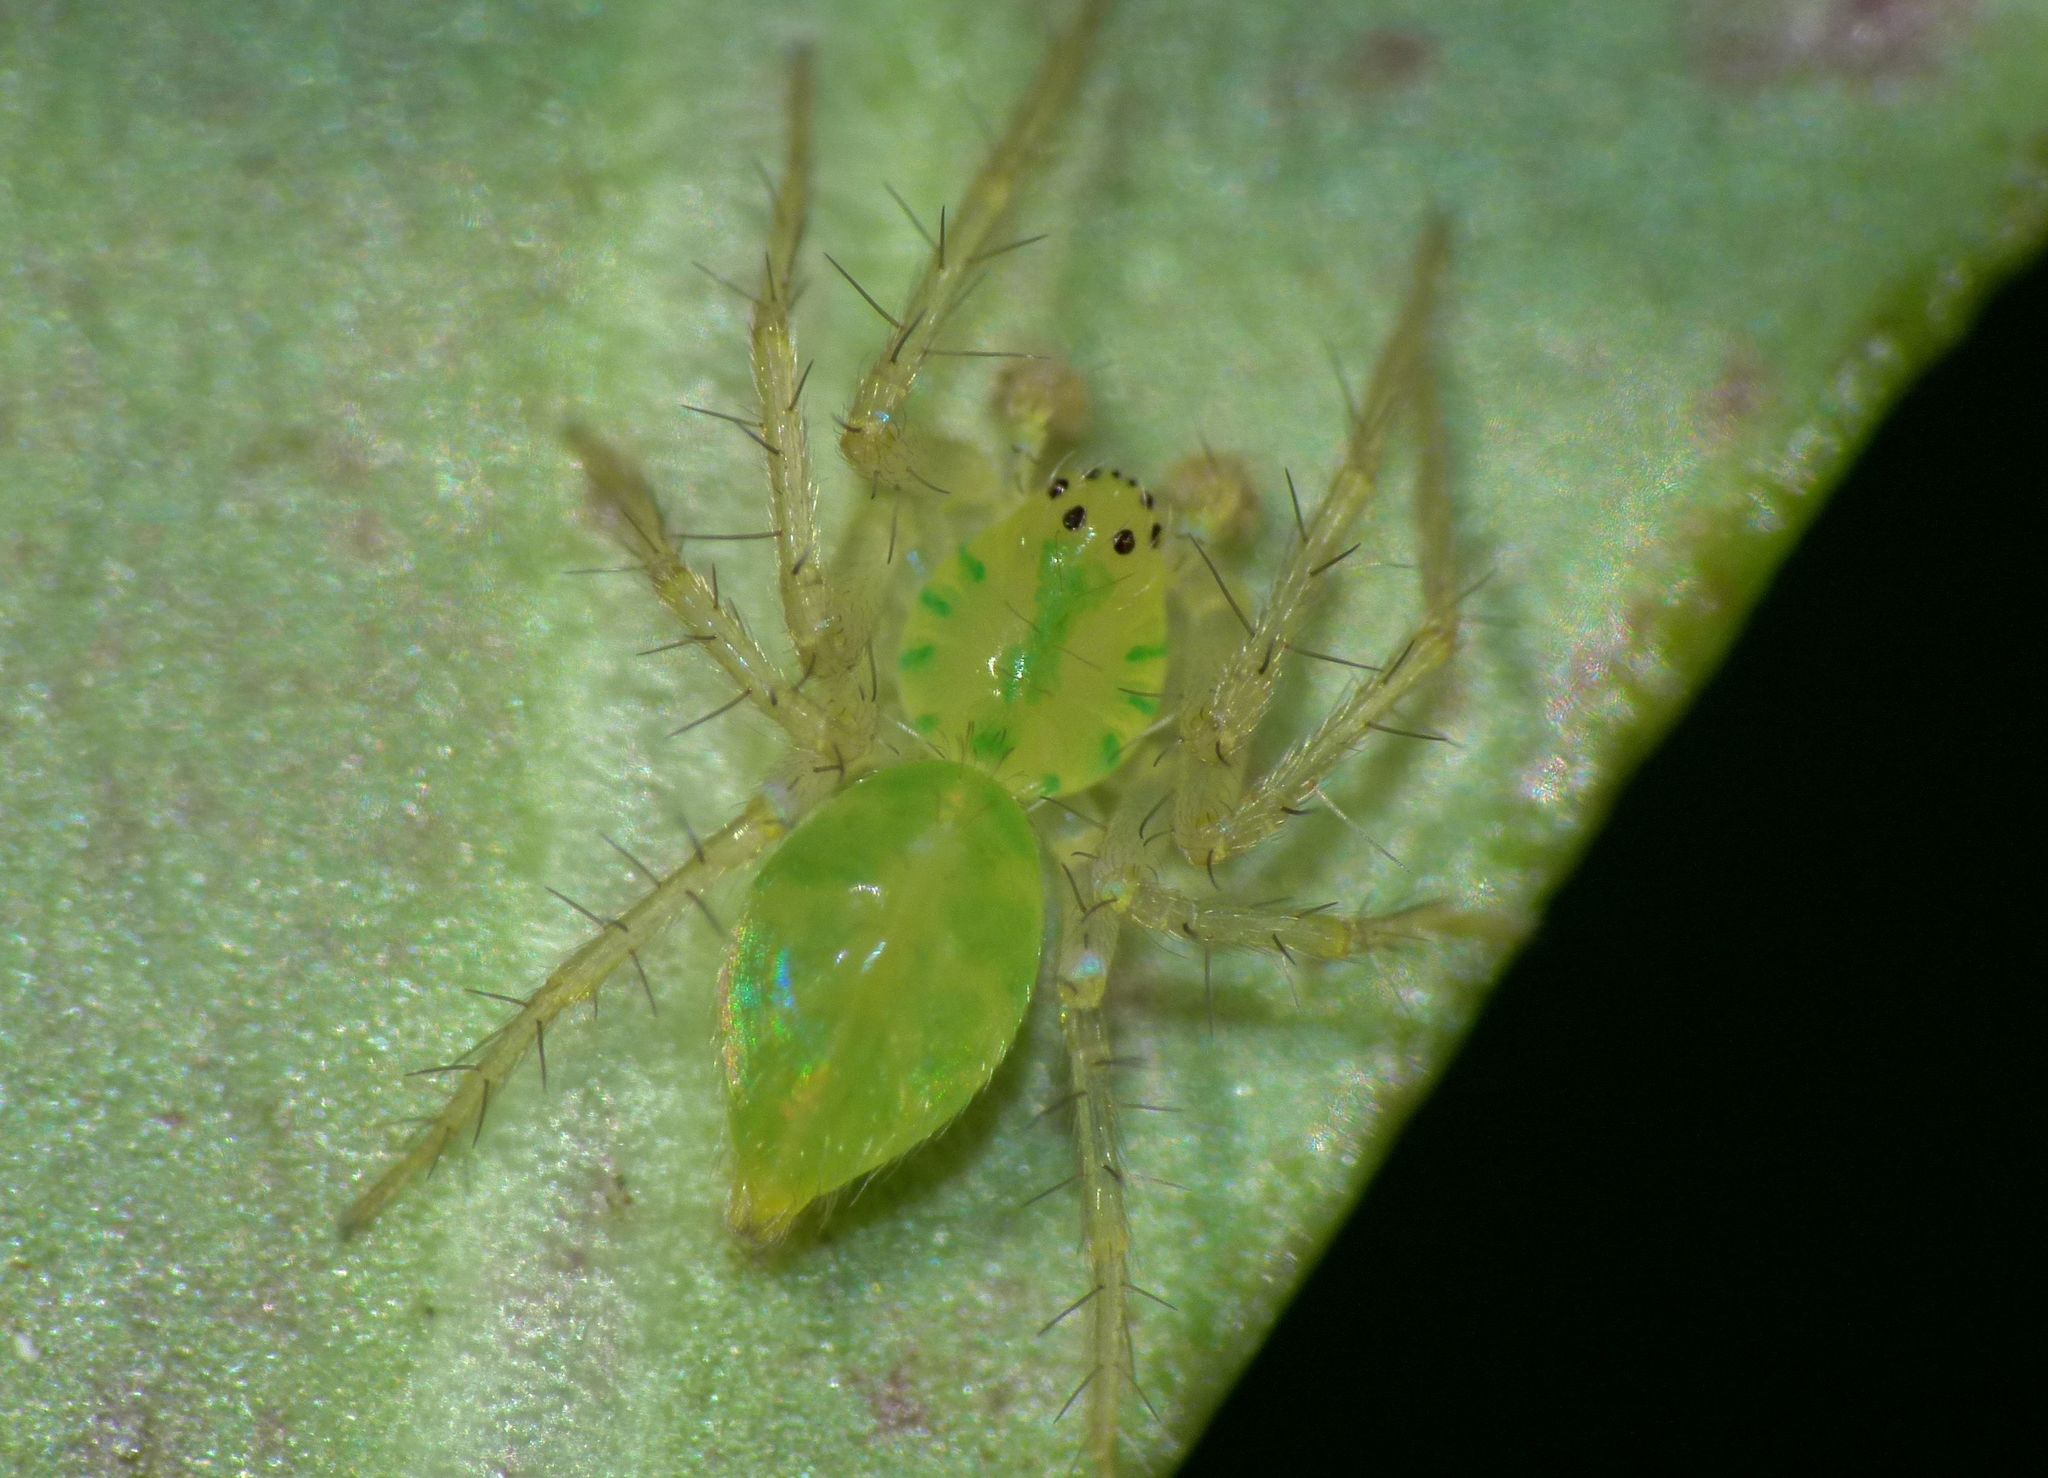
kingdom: Animalia
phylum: Arthropoda
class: Arachnida
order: Araneae
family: Toxopidae
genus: Lamina
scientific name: Lamina minor
